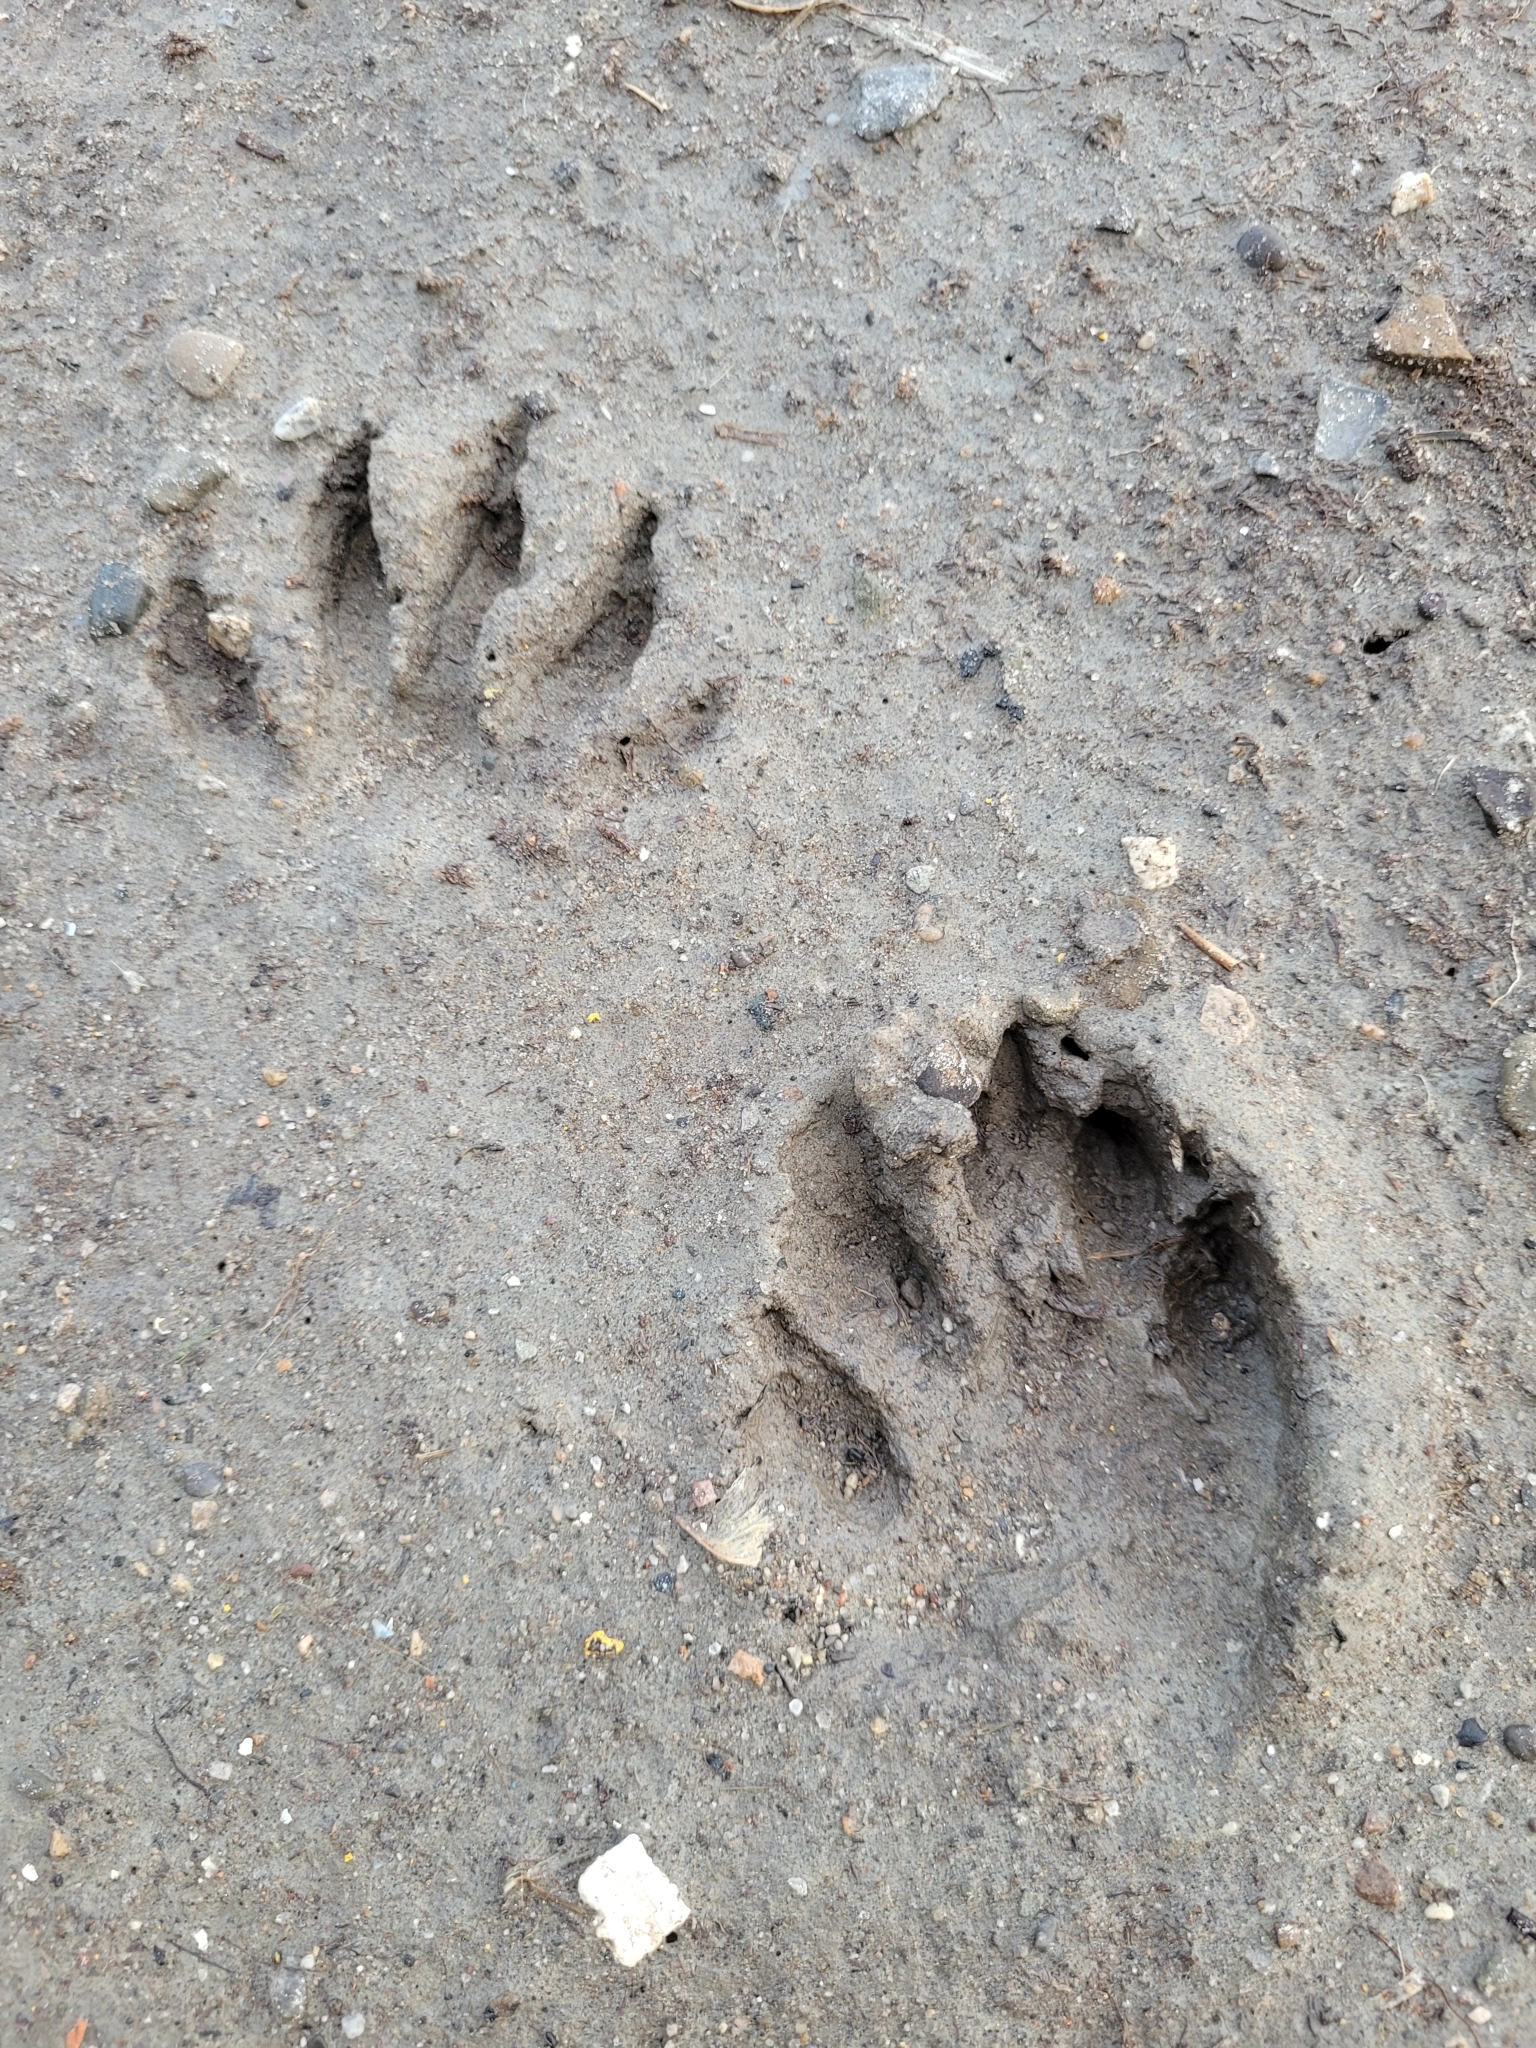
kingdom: Animalia
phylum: Chordata
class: Mammalia
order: Carnivora
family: Procyonidae
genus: Procyon
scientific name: Procyon lotor
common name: Raccoon
